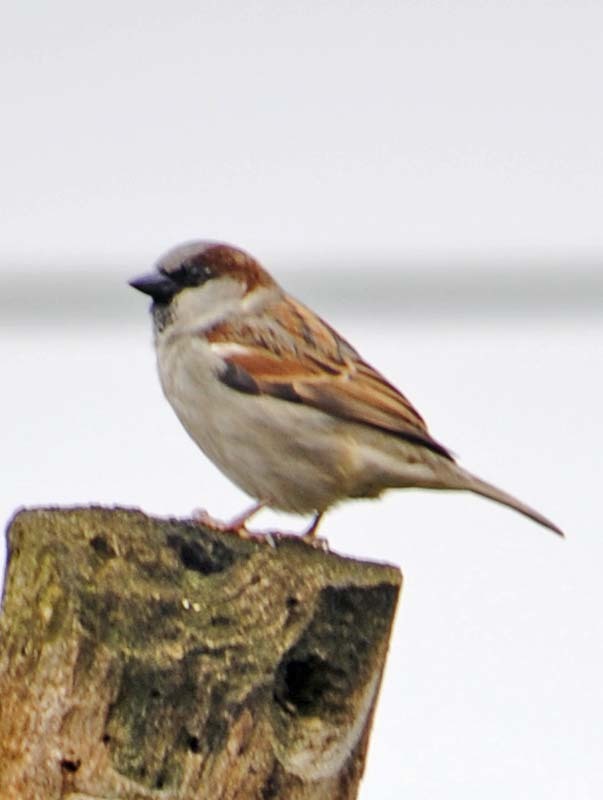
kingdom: Animalia
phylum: Chordata
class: Aves
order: Passeriformes
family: Passeridae
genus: Passer
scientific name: Passer domesticus
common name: House sparrow
